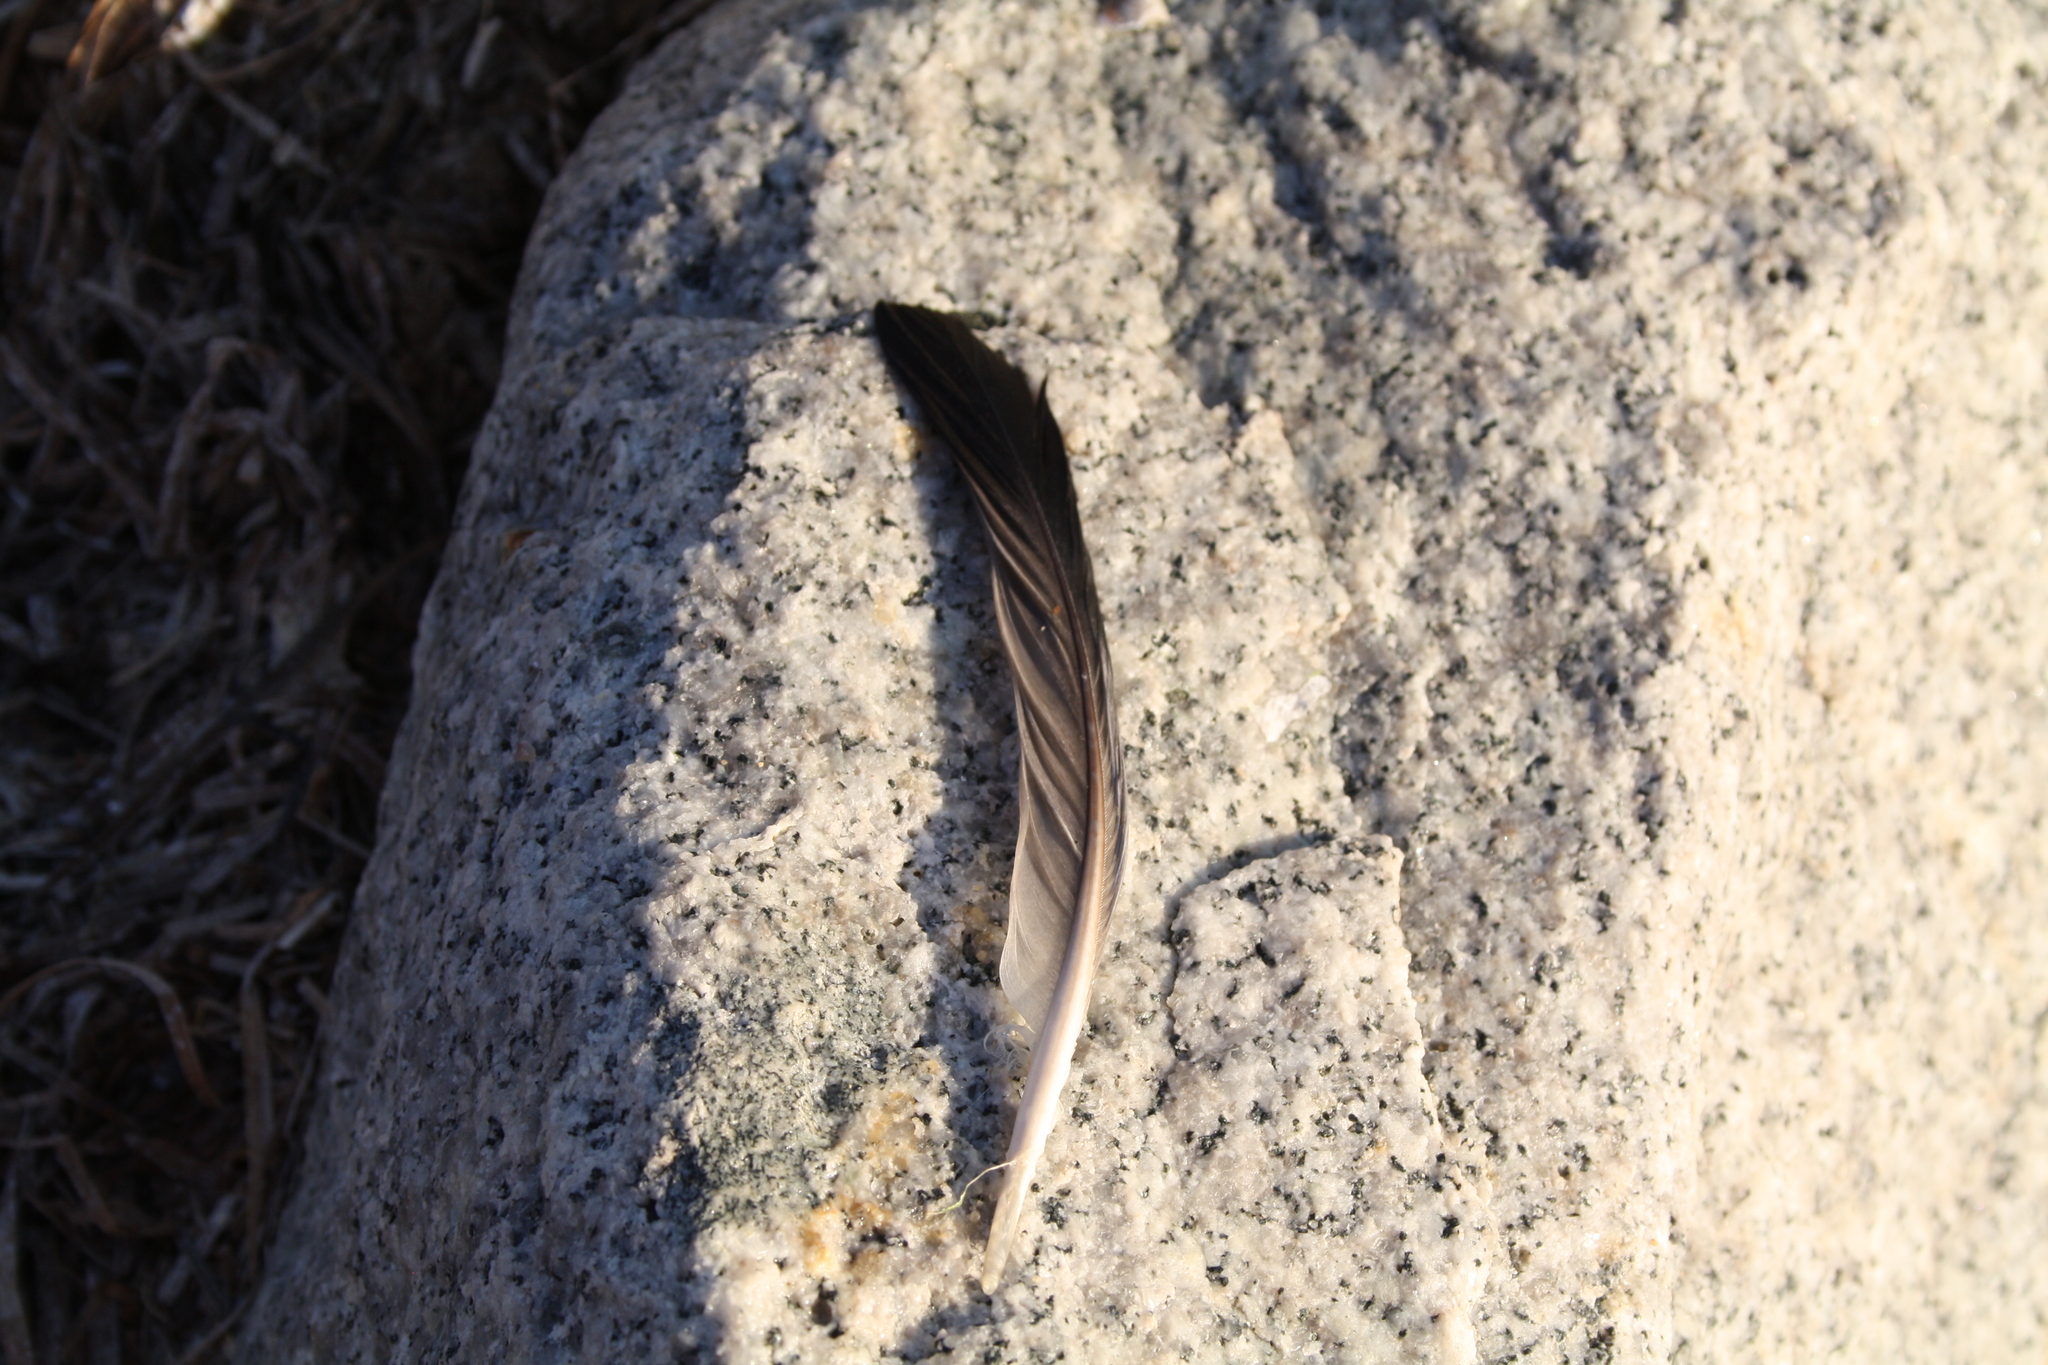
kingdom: Animalia
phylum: Chordata
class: Aves
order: Columbiformes
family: Columbidae
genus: Columba
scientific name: Columba livia
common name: Rock pigeon
